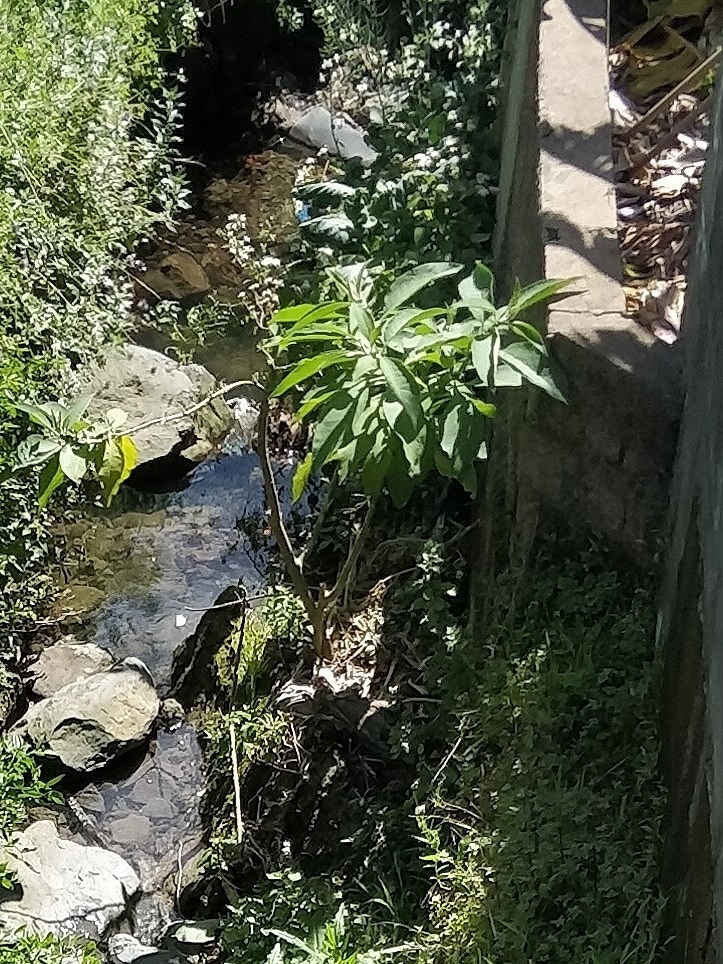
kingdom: Plantae
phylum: Tracheophyta
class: Magnoliopsida
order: Solanales
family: Solanaceae
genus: Solanum
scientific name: Solanum mauritianum
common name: Earleaf nightshade
